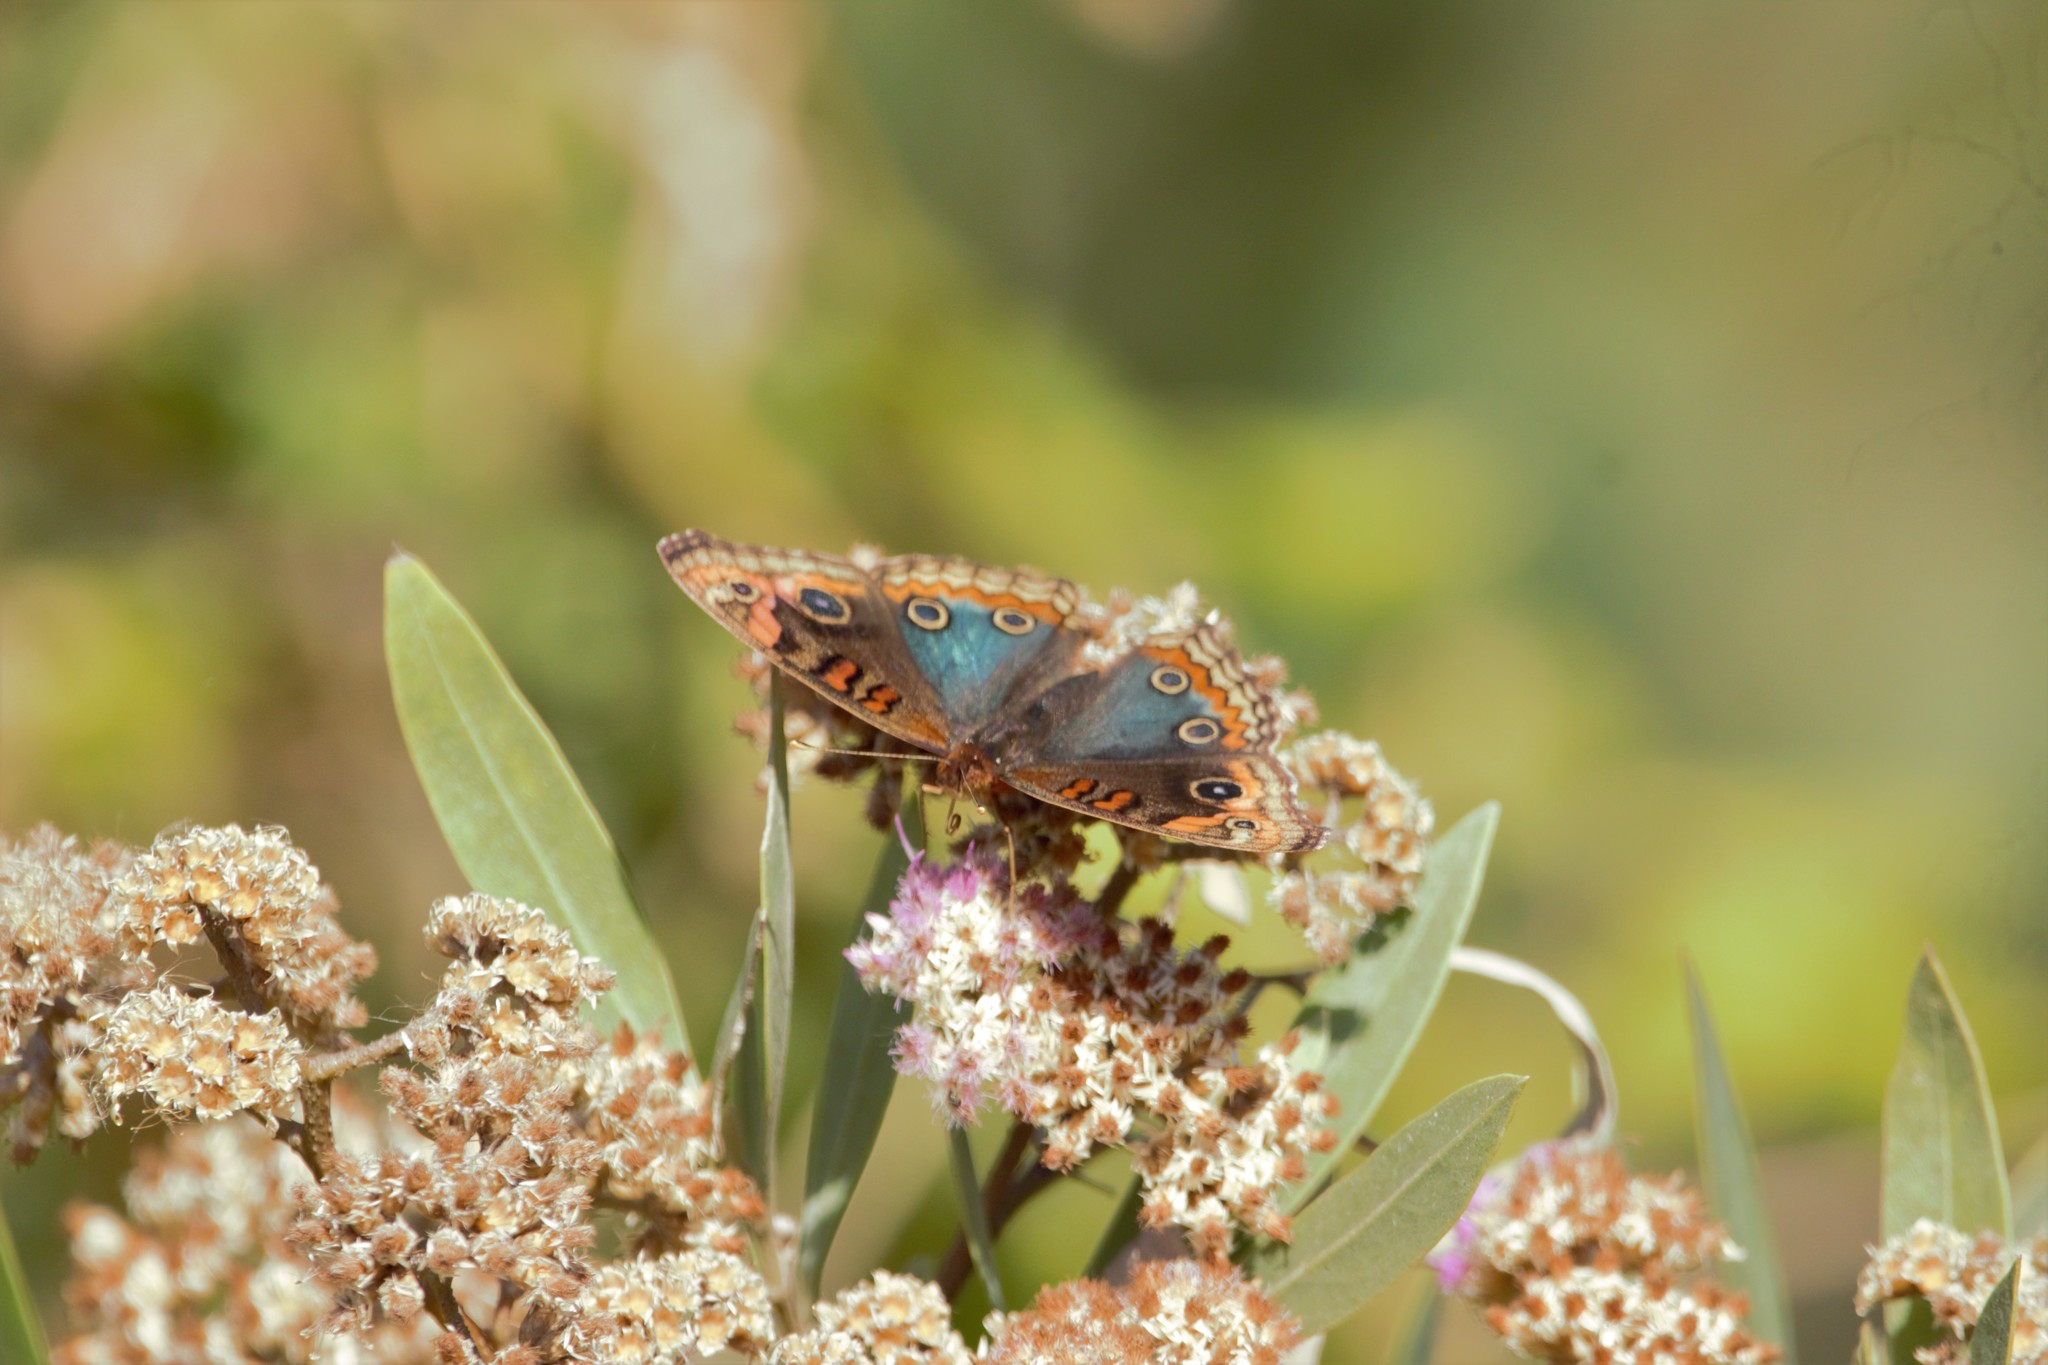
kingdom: Animalia
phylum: Arthropoda
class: Insecta
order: Lepidoptera
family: Nymphalidae
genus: Junonia
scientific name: Junonia lavinia
